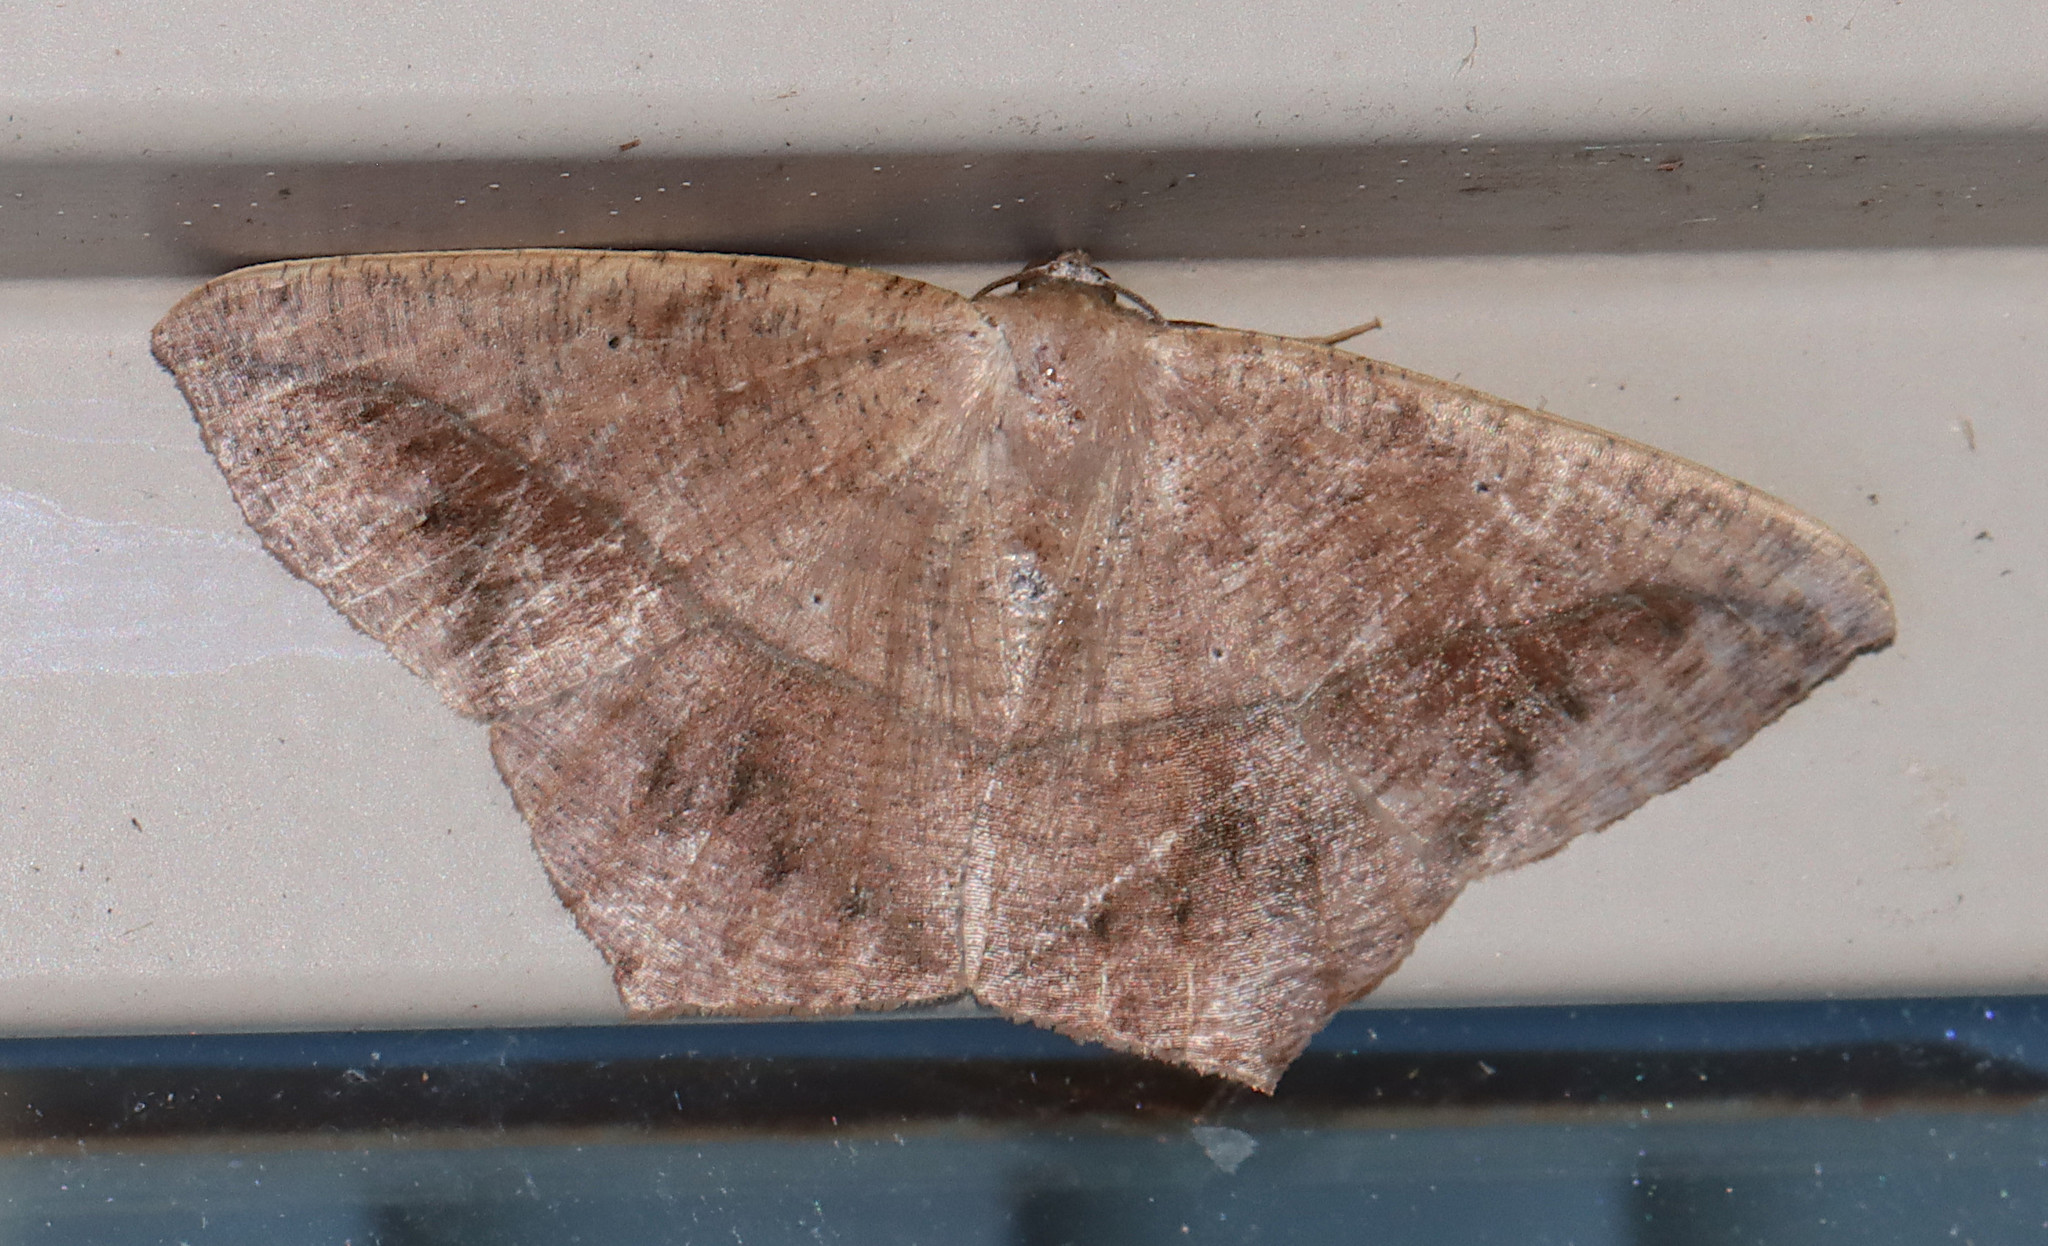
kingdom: Animalia
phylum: Arthropoda
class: Insecta
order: Lepidoptera
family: Geometridae
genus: Prochoerodes
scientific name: Prochoerodes lineola
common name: Large maple spanworm
